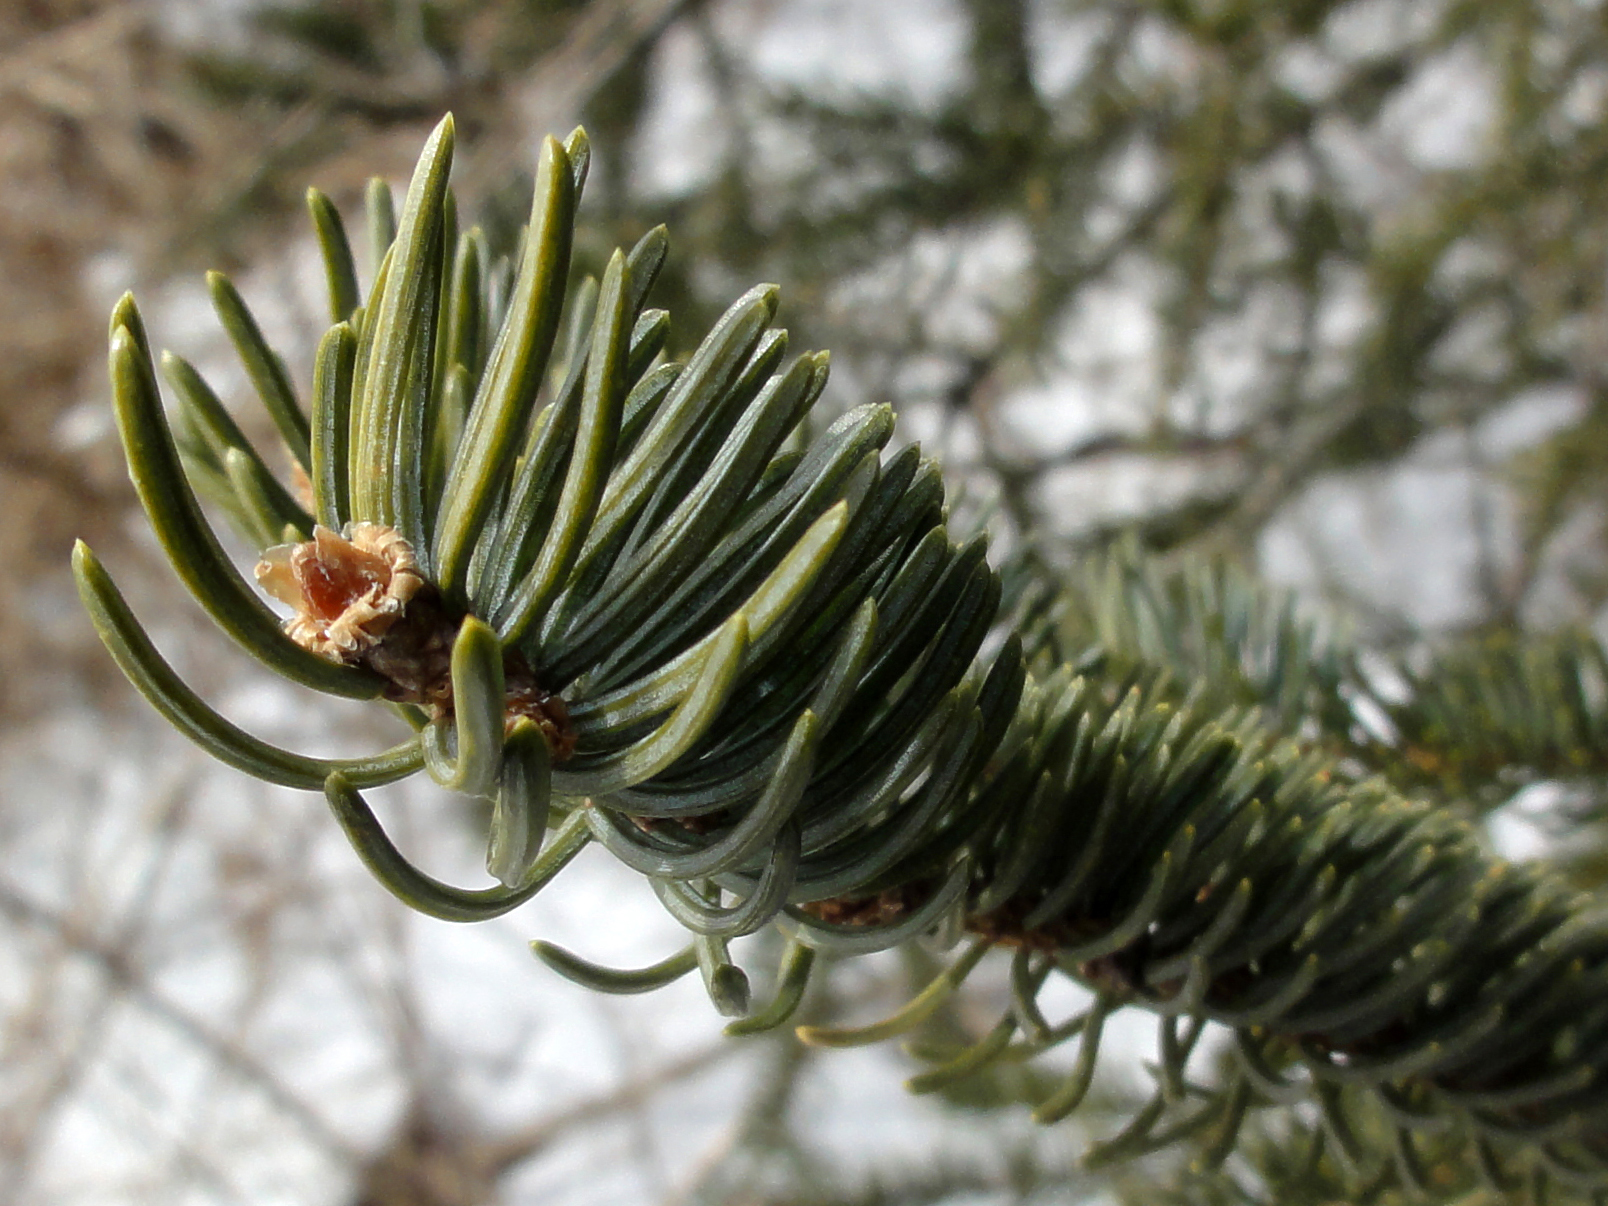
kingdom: Plantae
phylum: Tracheophyta
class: Pinopsida
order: Pinales
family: Pinaceae
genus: Picea
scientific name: Picea glauca
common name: White spruce
